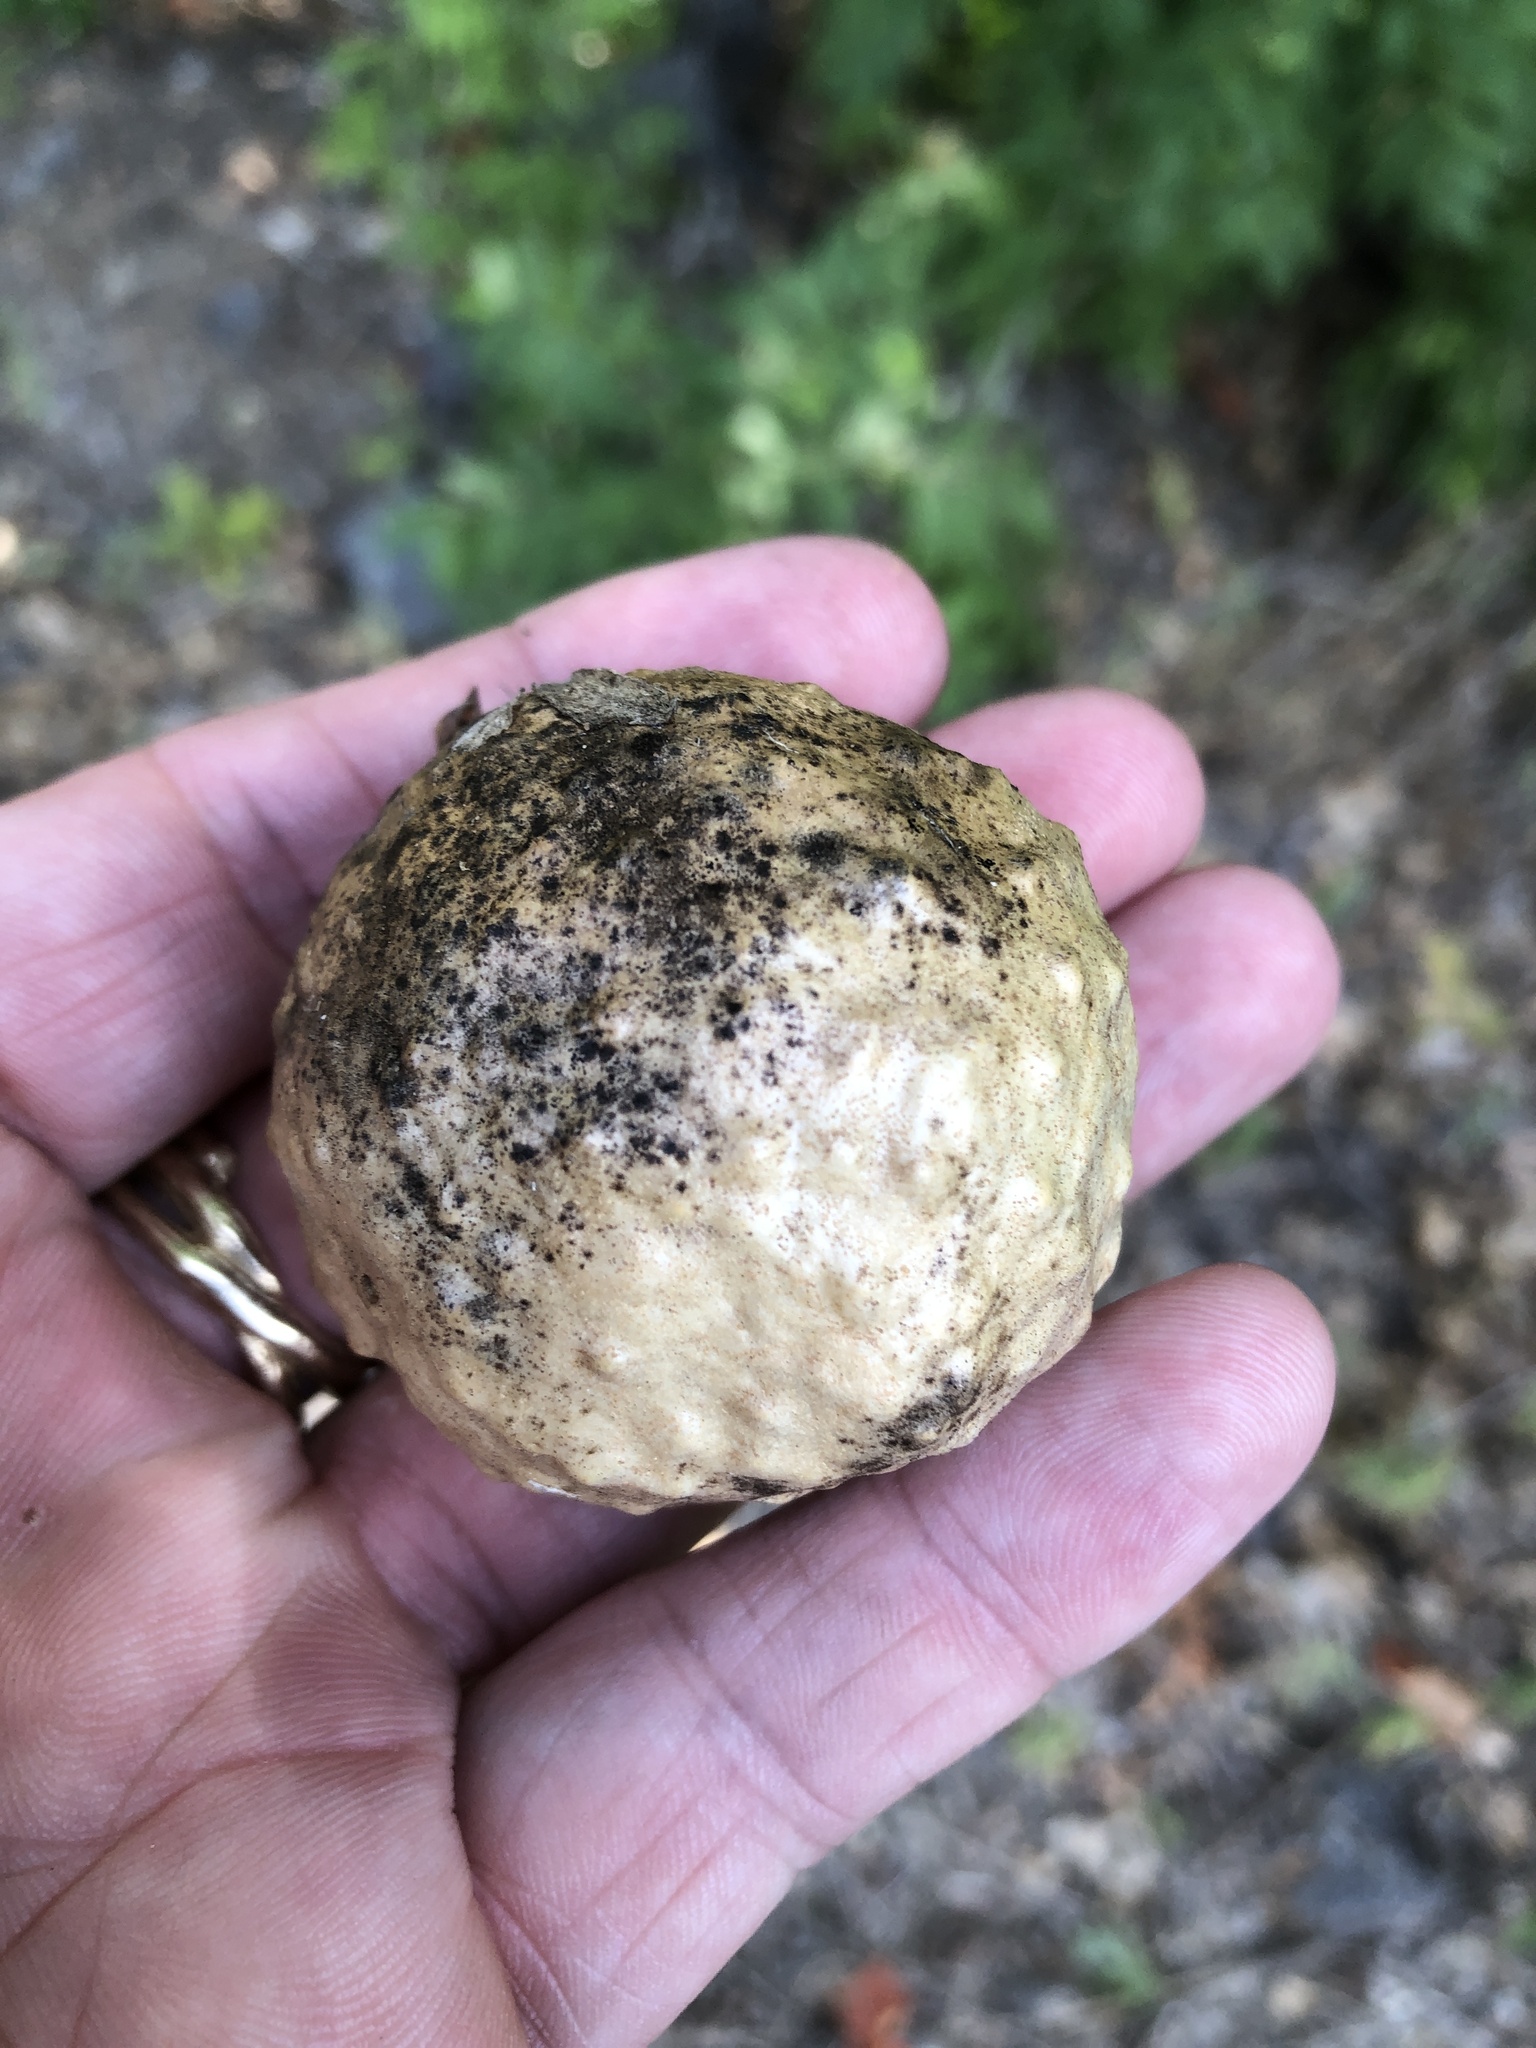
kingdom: Animalia
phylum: Arthropoda
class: Insecta
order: Hymenoptera
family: Cynipidae
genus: Amphibolips
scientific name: Amphibolips
